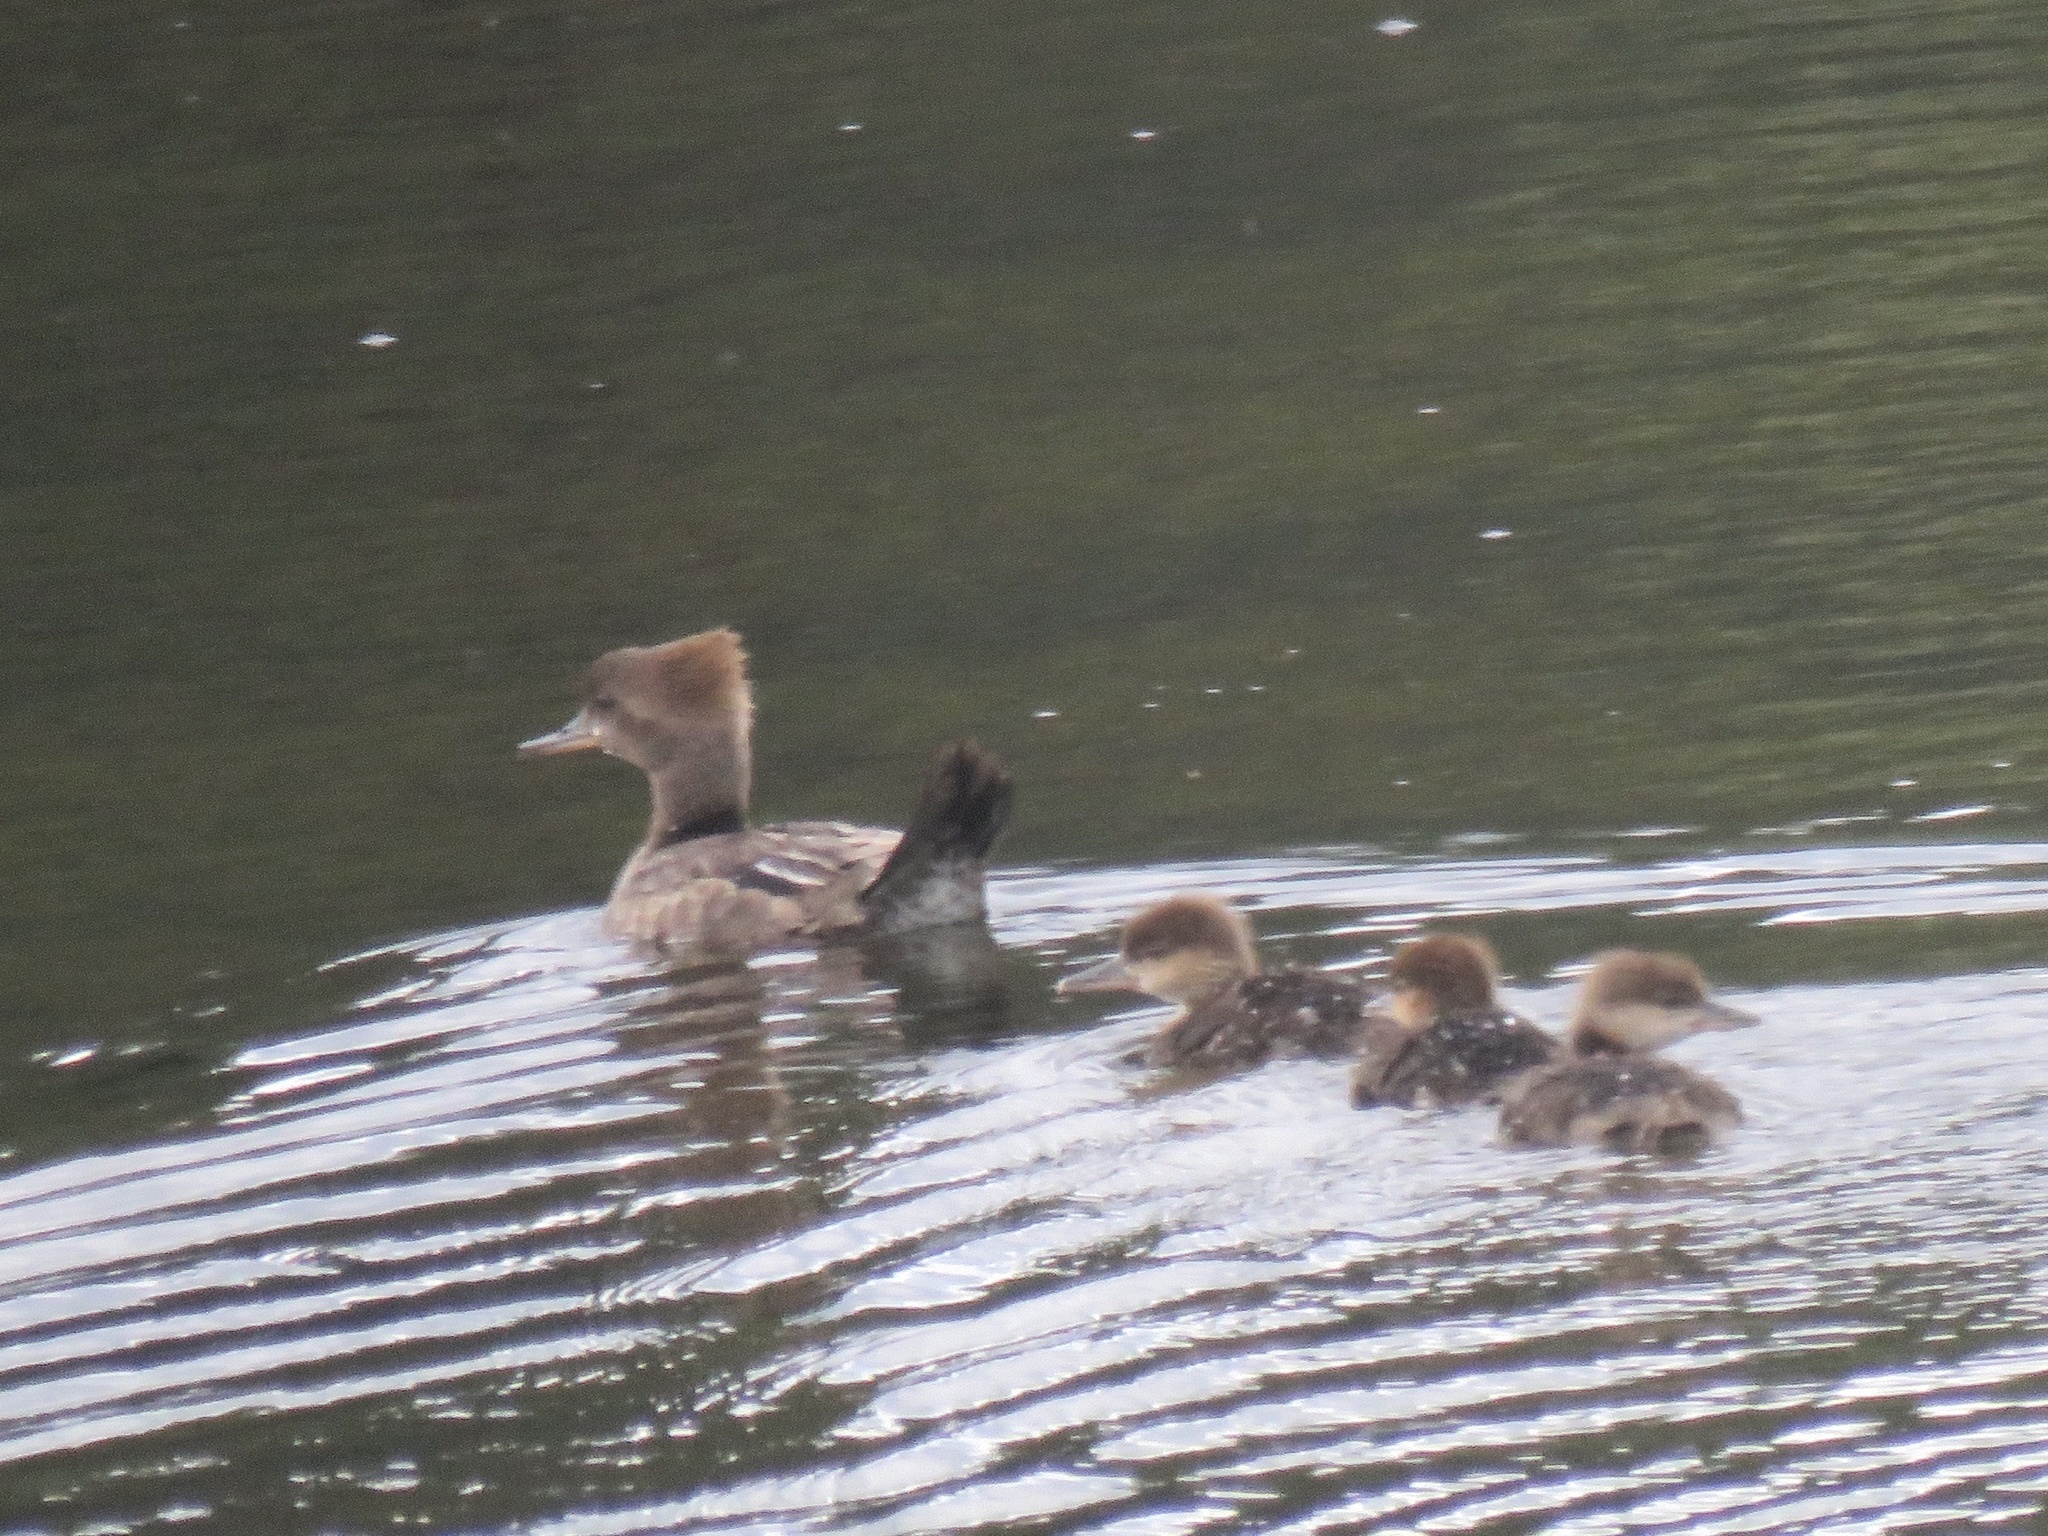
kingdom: Animalia
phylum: Chordata
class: Aves
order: Anseriformes
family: Anatidae
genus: Lophodytes
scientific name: Lophodytes cucullatus
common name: Hooded merganser
